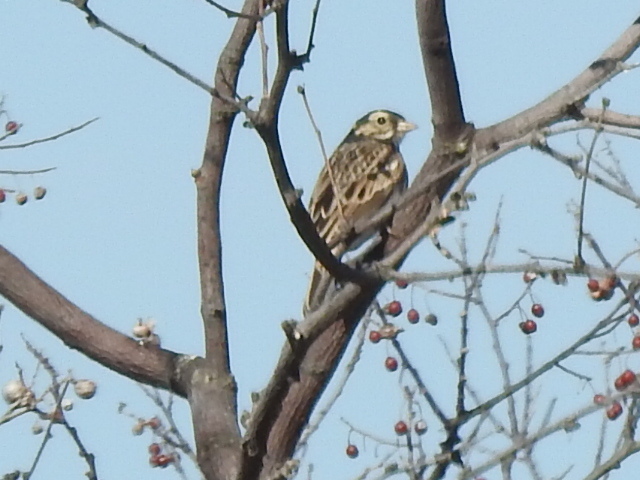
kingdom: Animalia
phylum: Chordata
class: Aves
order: Passeriformes
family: Passerellidae
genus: Passerculus
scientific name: Passerculus sandwichensis
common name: Savannah sparrow
